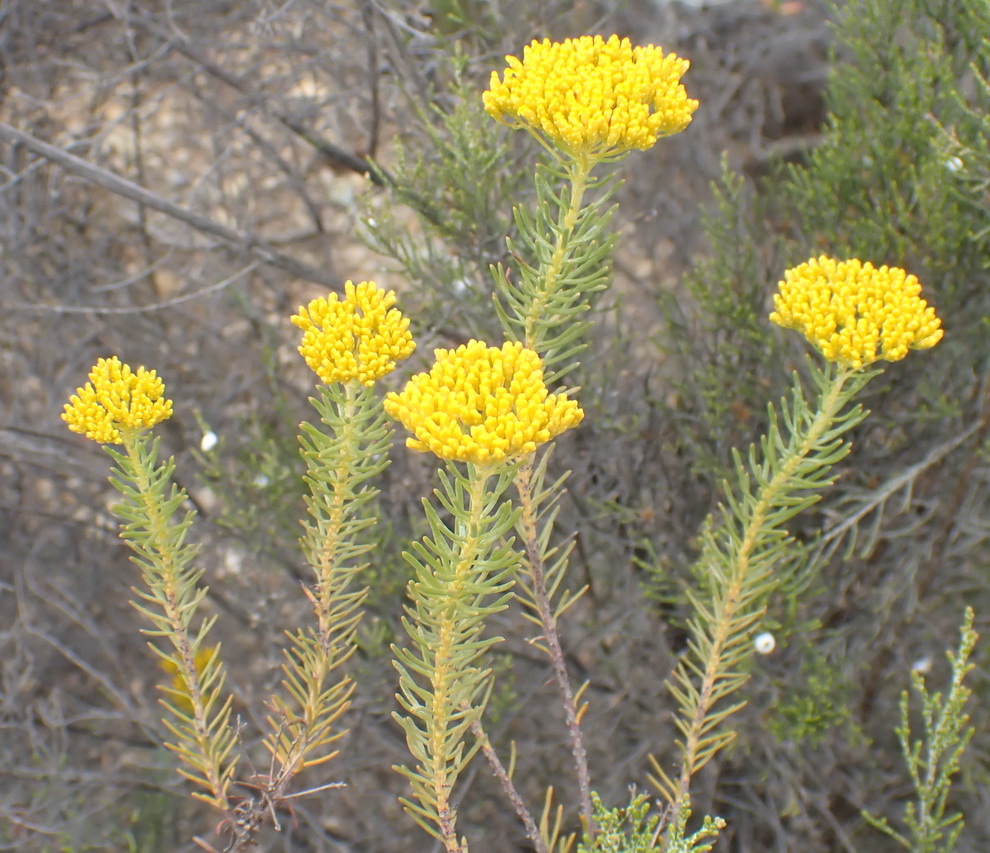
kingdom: Plantae
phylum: Tracheophyta
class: Magnoliopsida
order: Asterales
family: Asteraceae
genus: Athanasia
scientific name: Athanasia vestita
